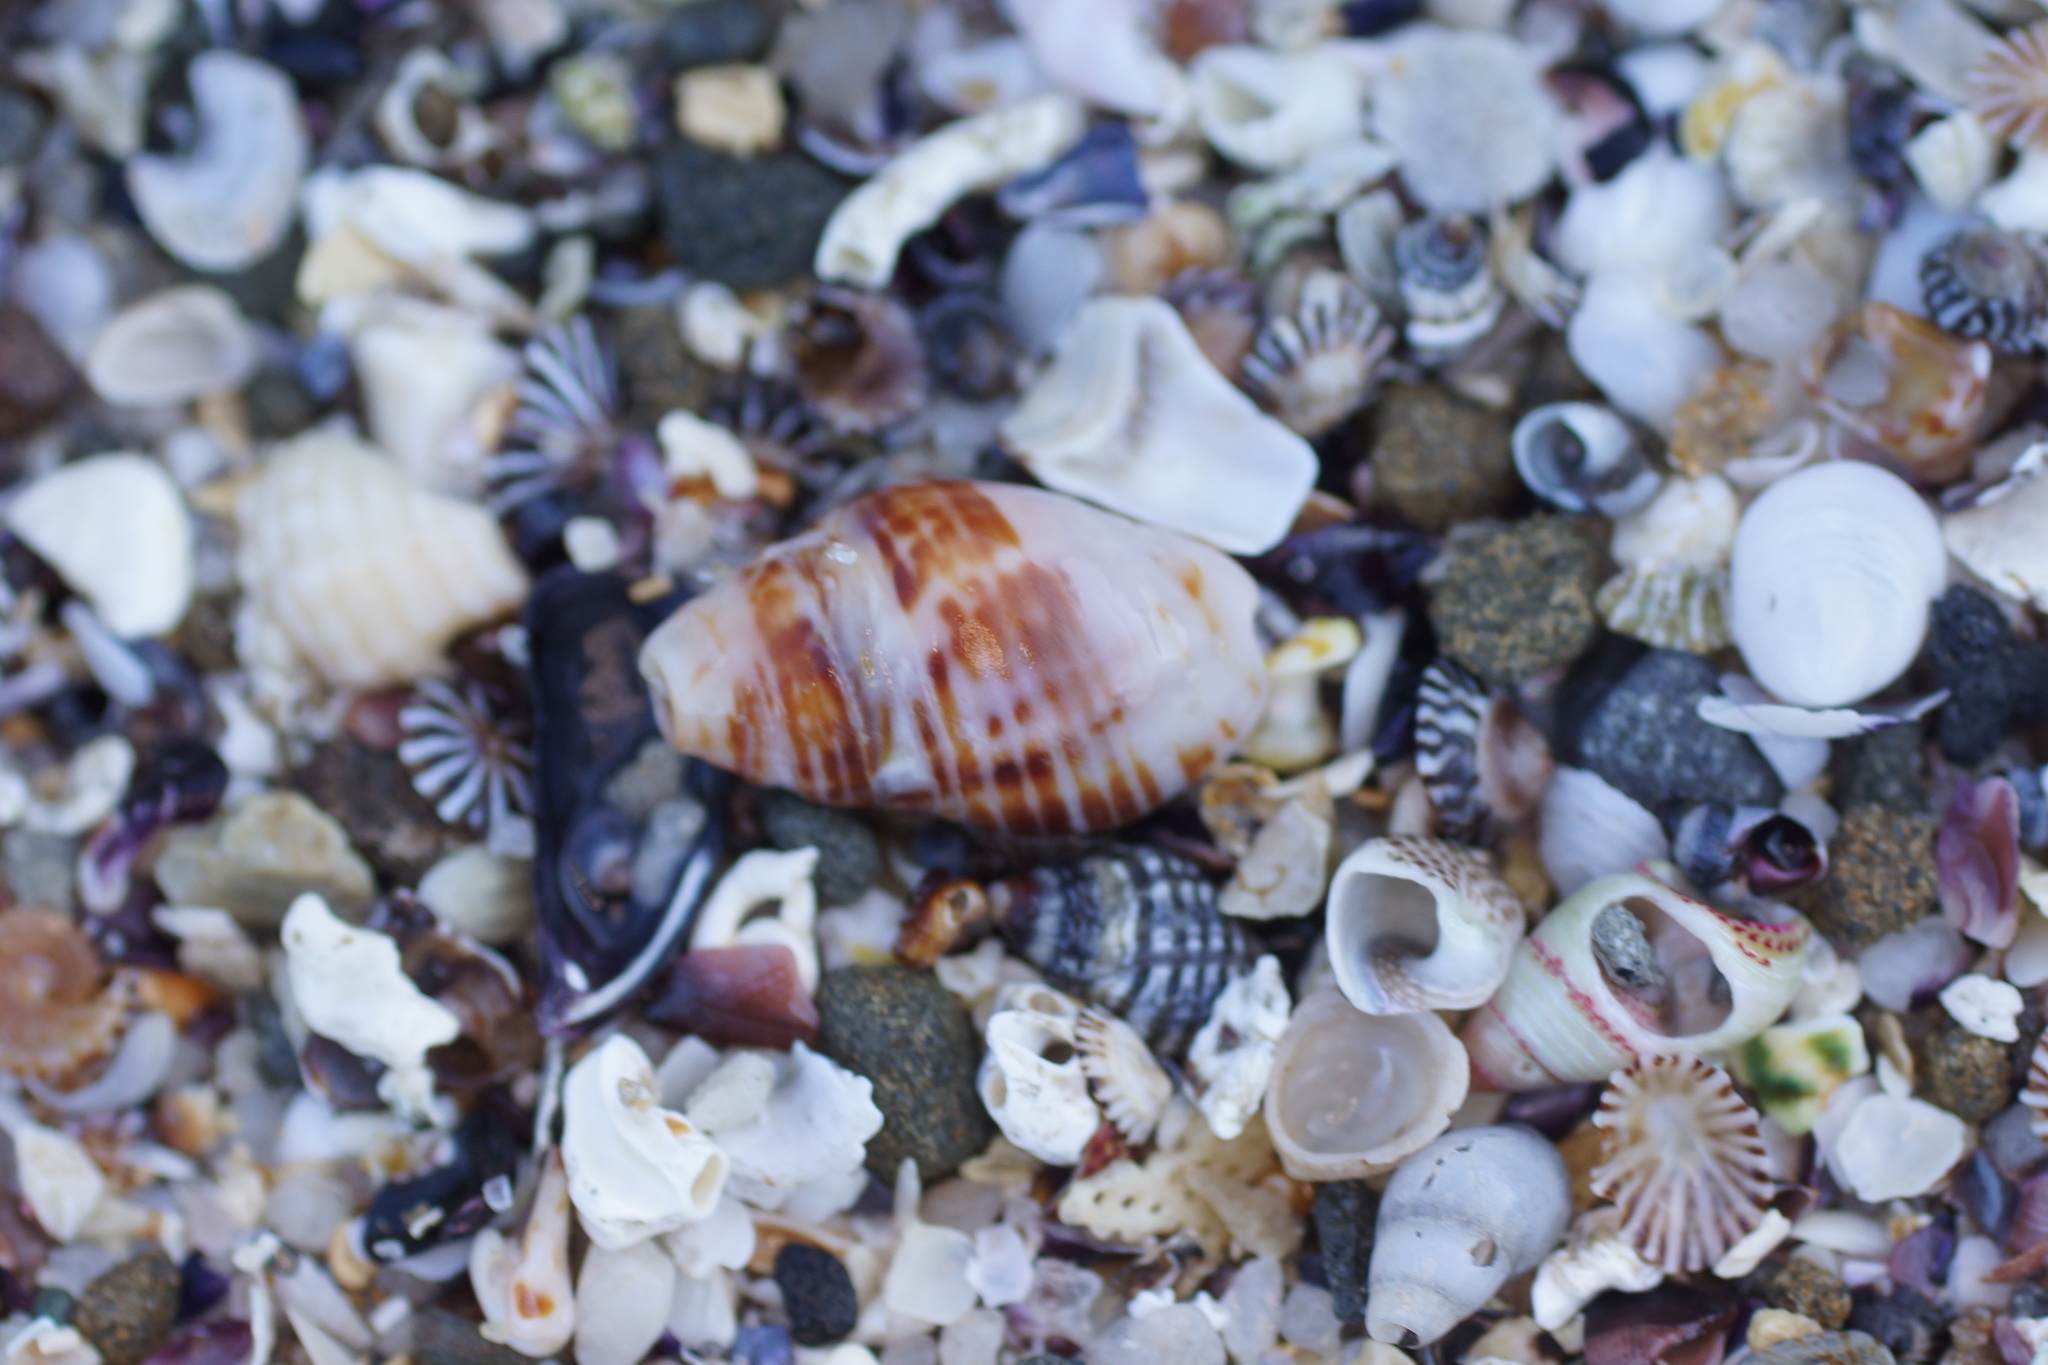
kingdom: Animalia
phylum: Mollusca
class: Gastropoda
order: Neogastropoda
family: Cominellidae
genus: Cominella
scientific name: Cominella lineolata
